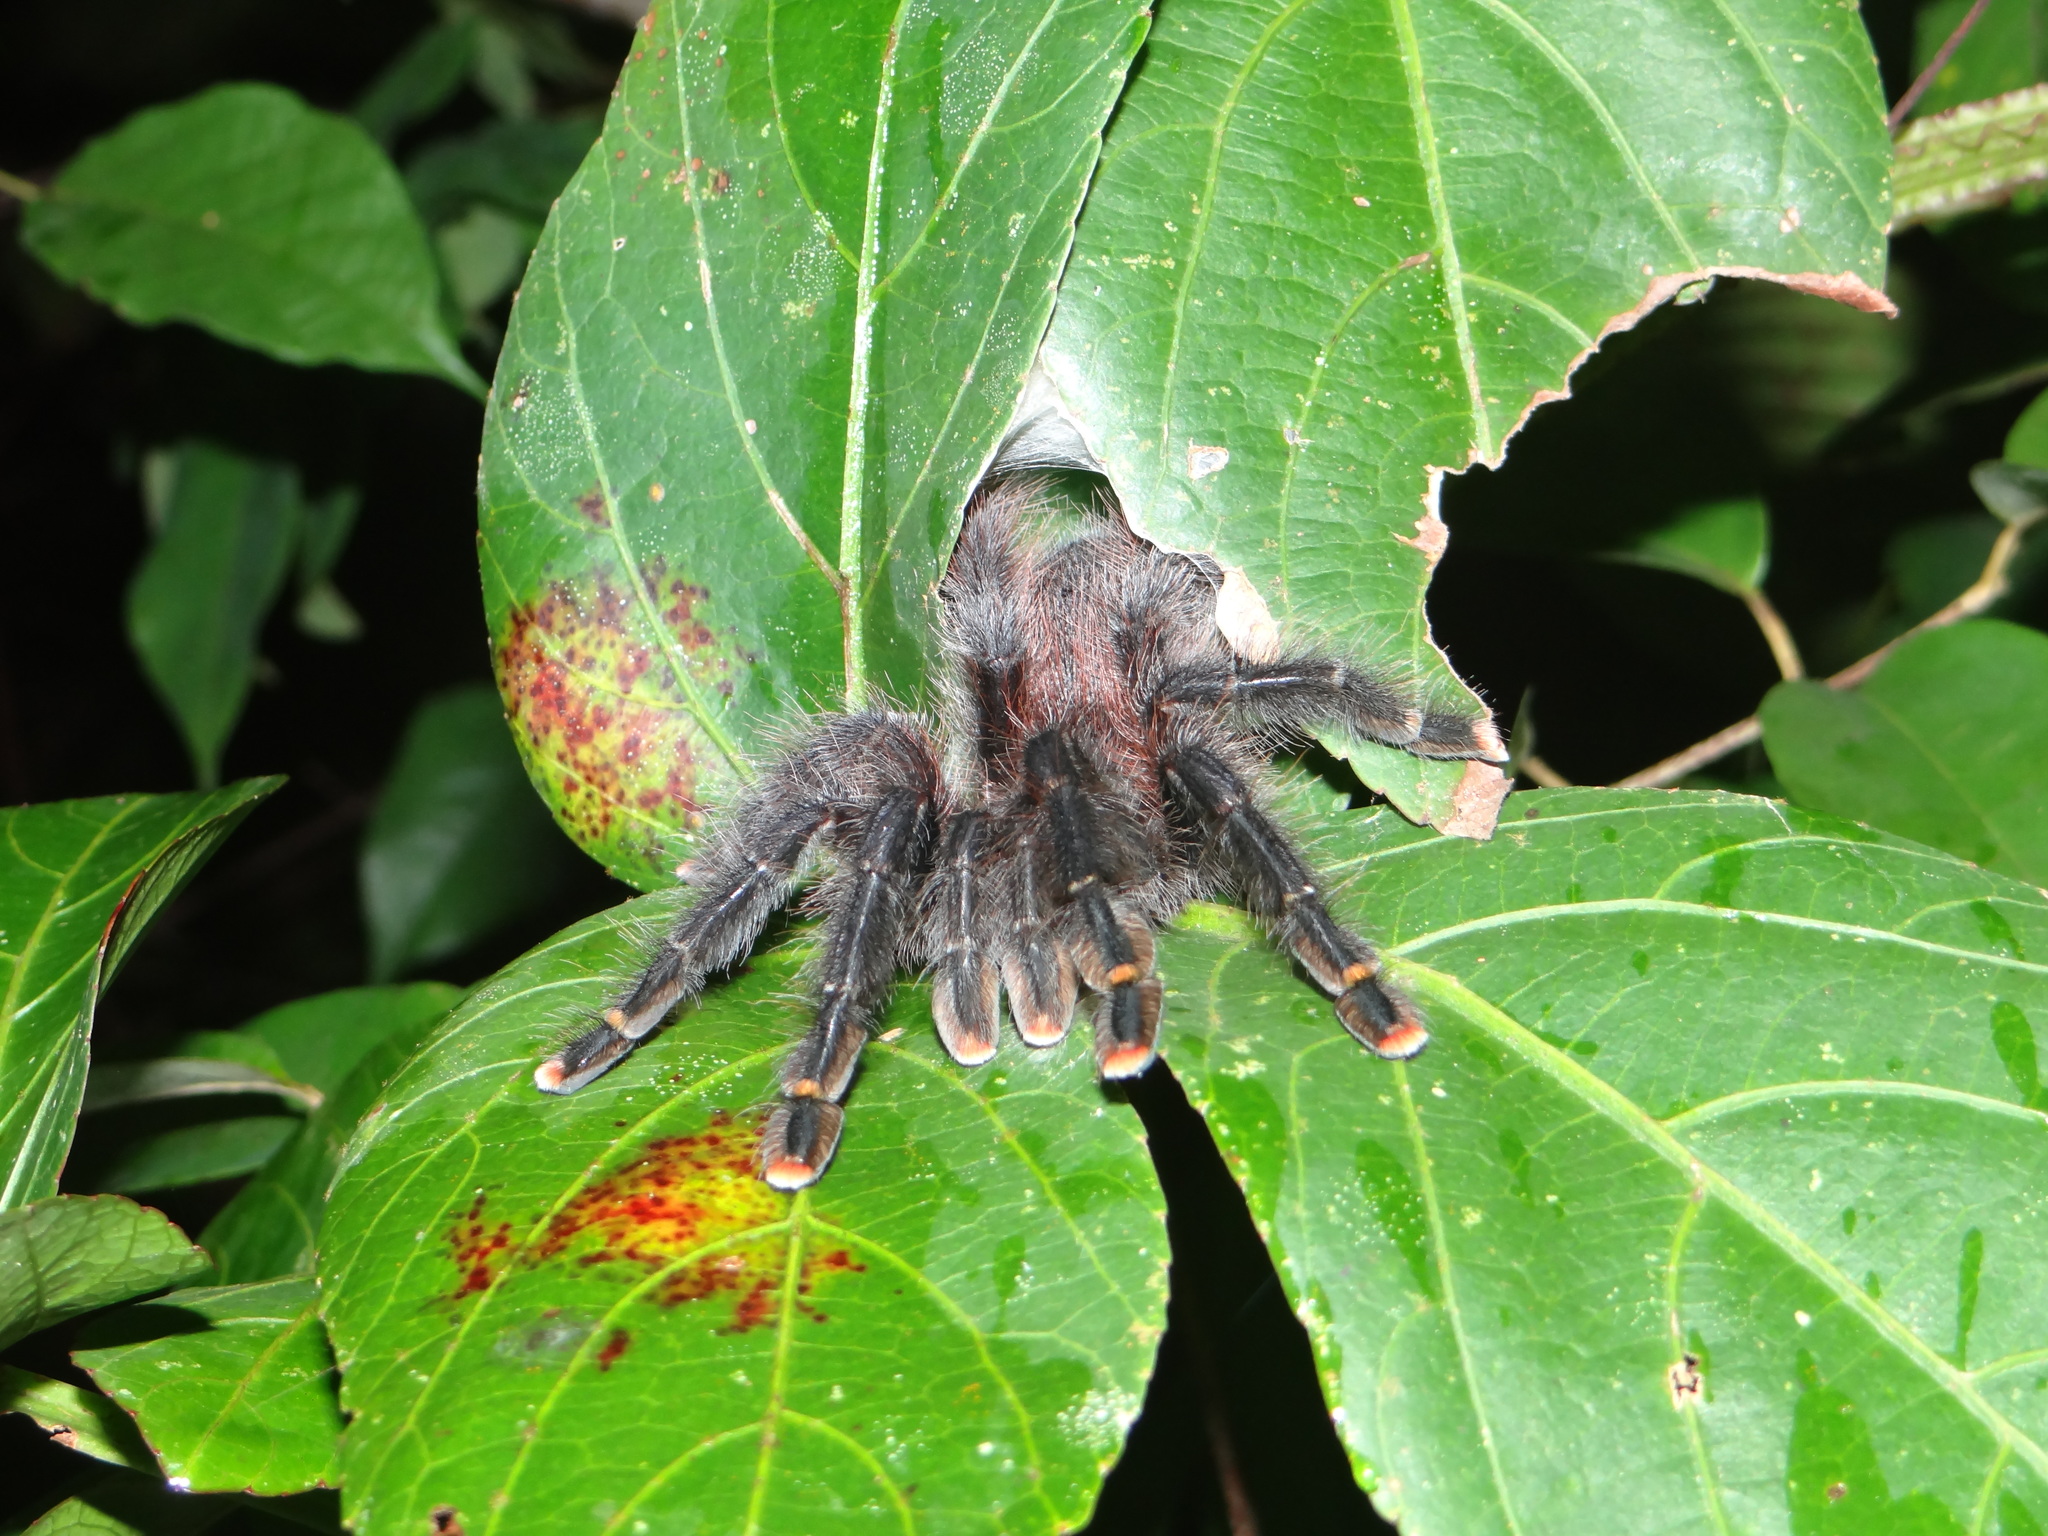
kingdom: Animalia
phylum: Arthropoda
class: Arachnida
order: Araneae
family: Theraphosidae
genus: Avicularia
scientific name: Avicularia avicularia
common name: Tarantula spiders
